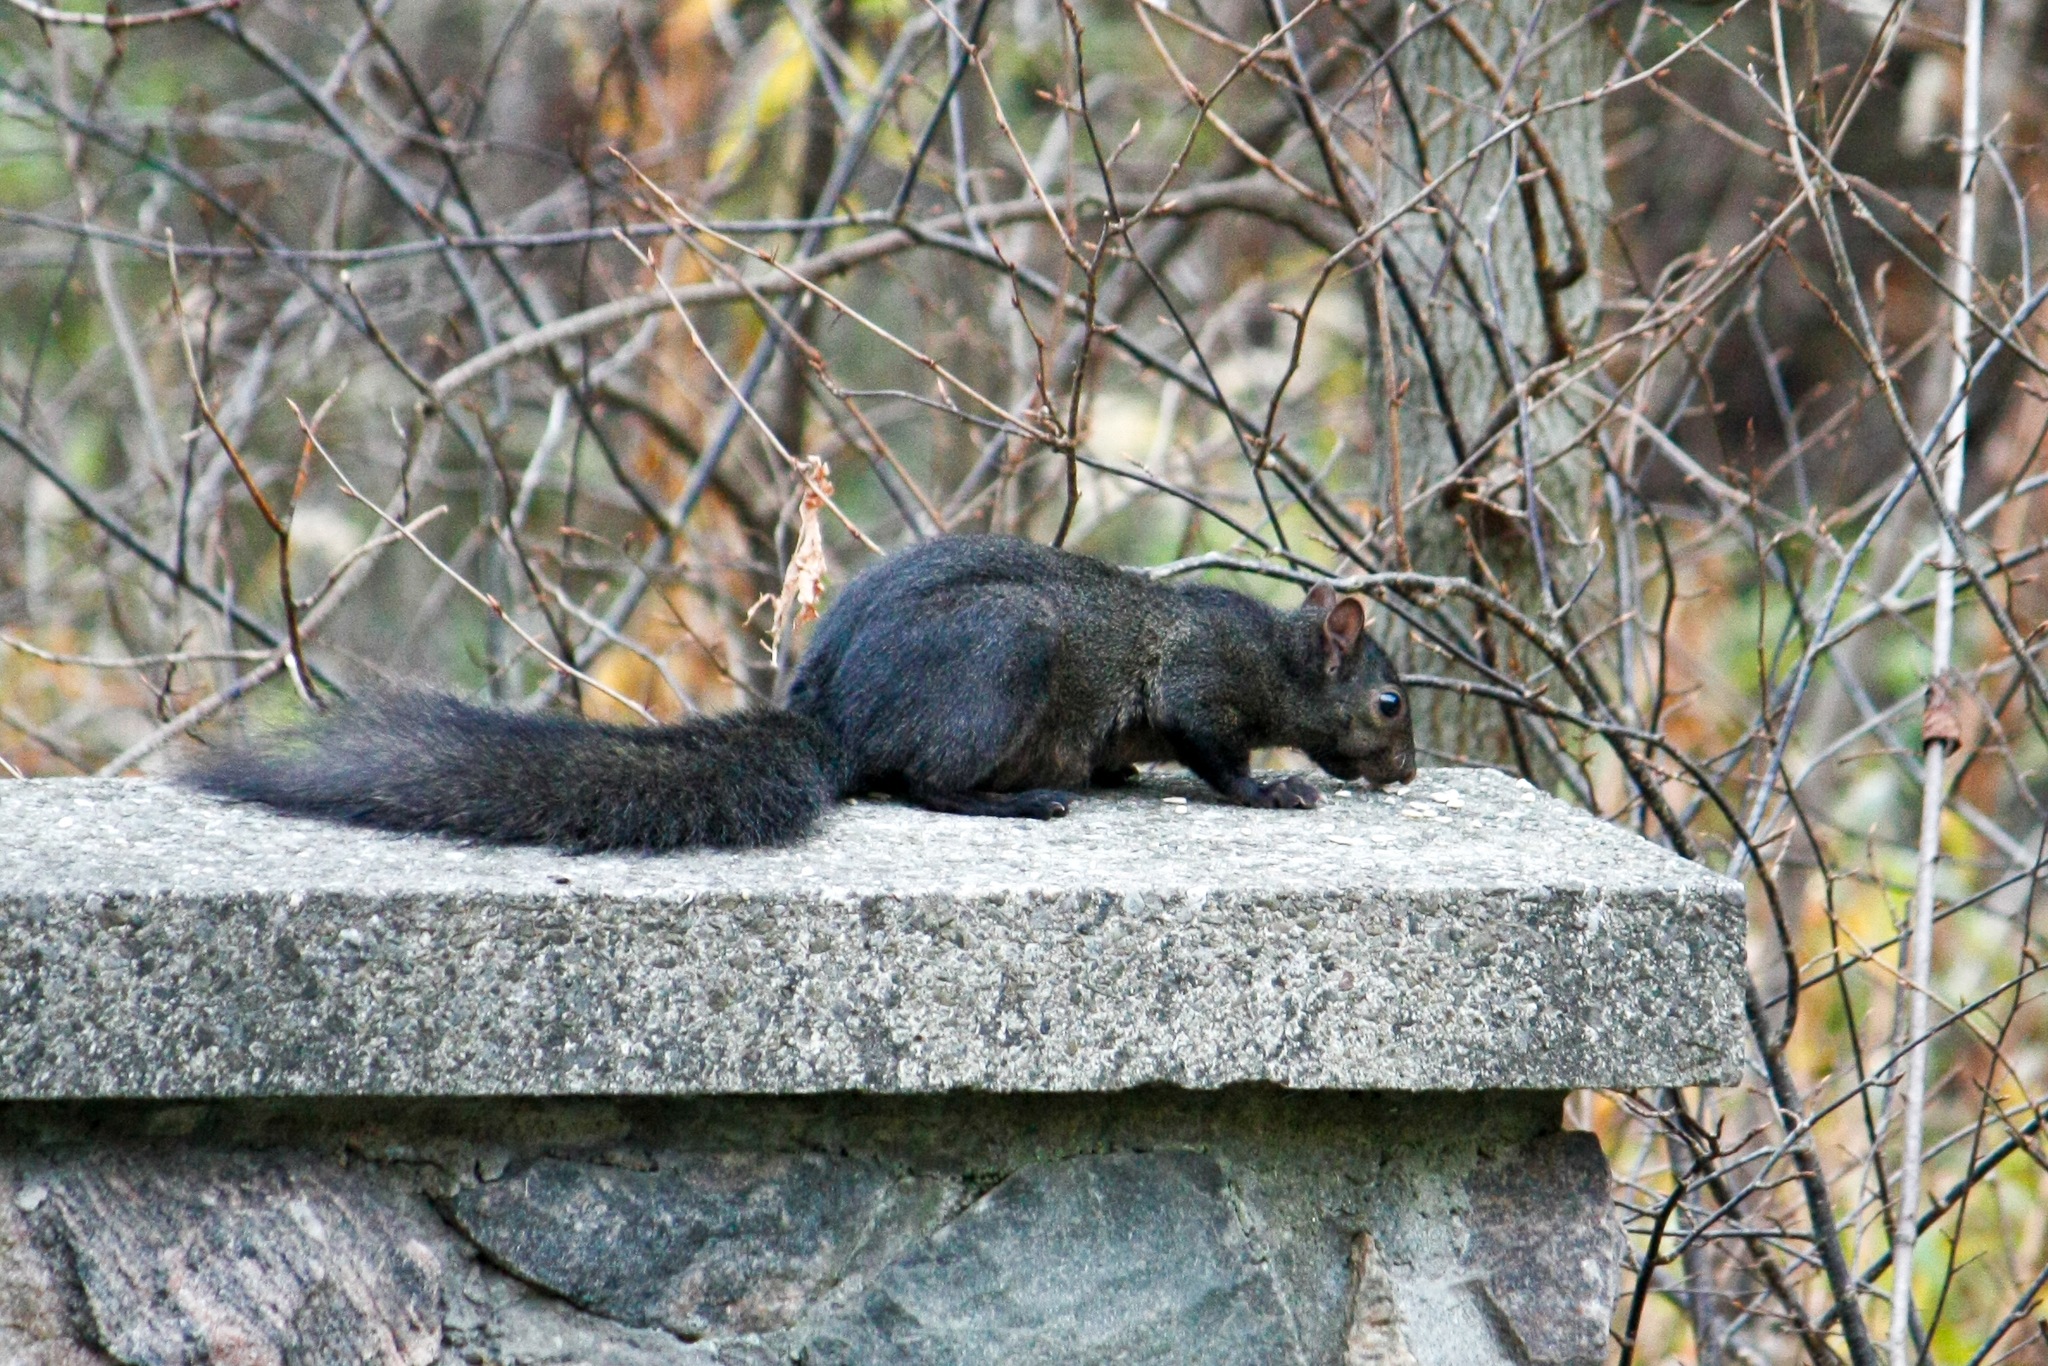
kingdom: Animalia
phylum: Chordata
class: Mammalia
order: Rodentia
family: Sciuridae
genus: Sciurus
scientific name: Sciurus carolinensis
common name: Eastern gray squirrel
